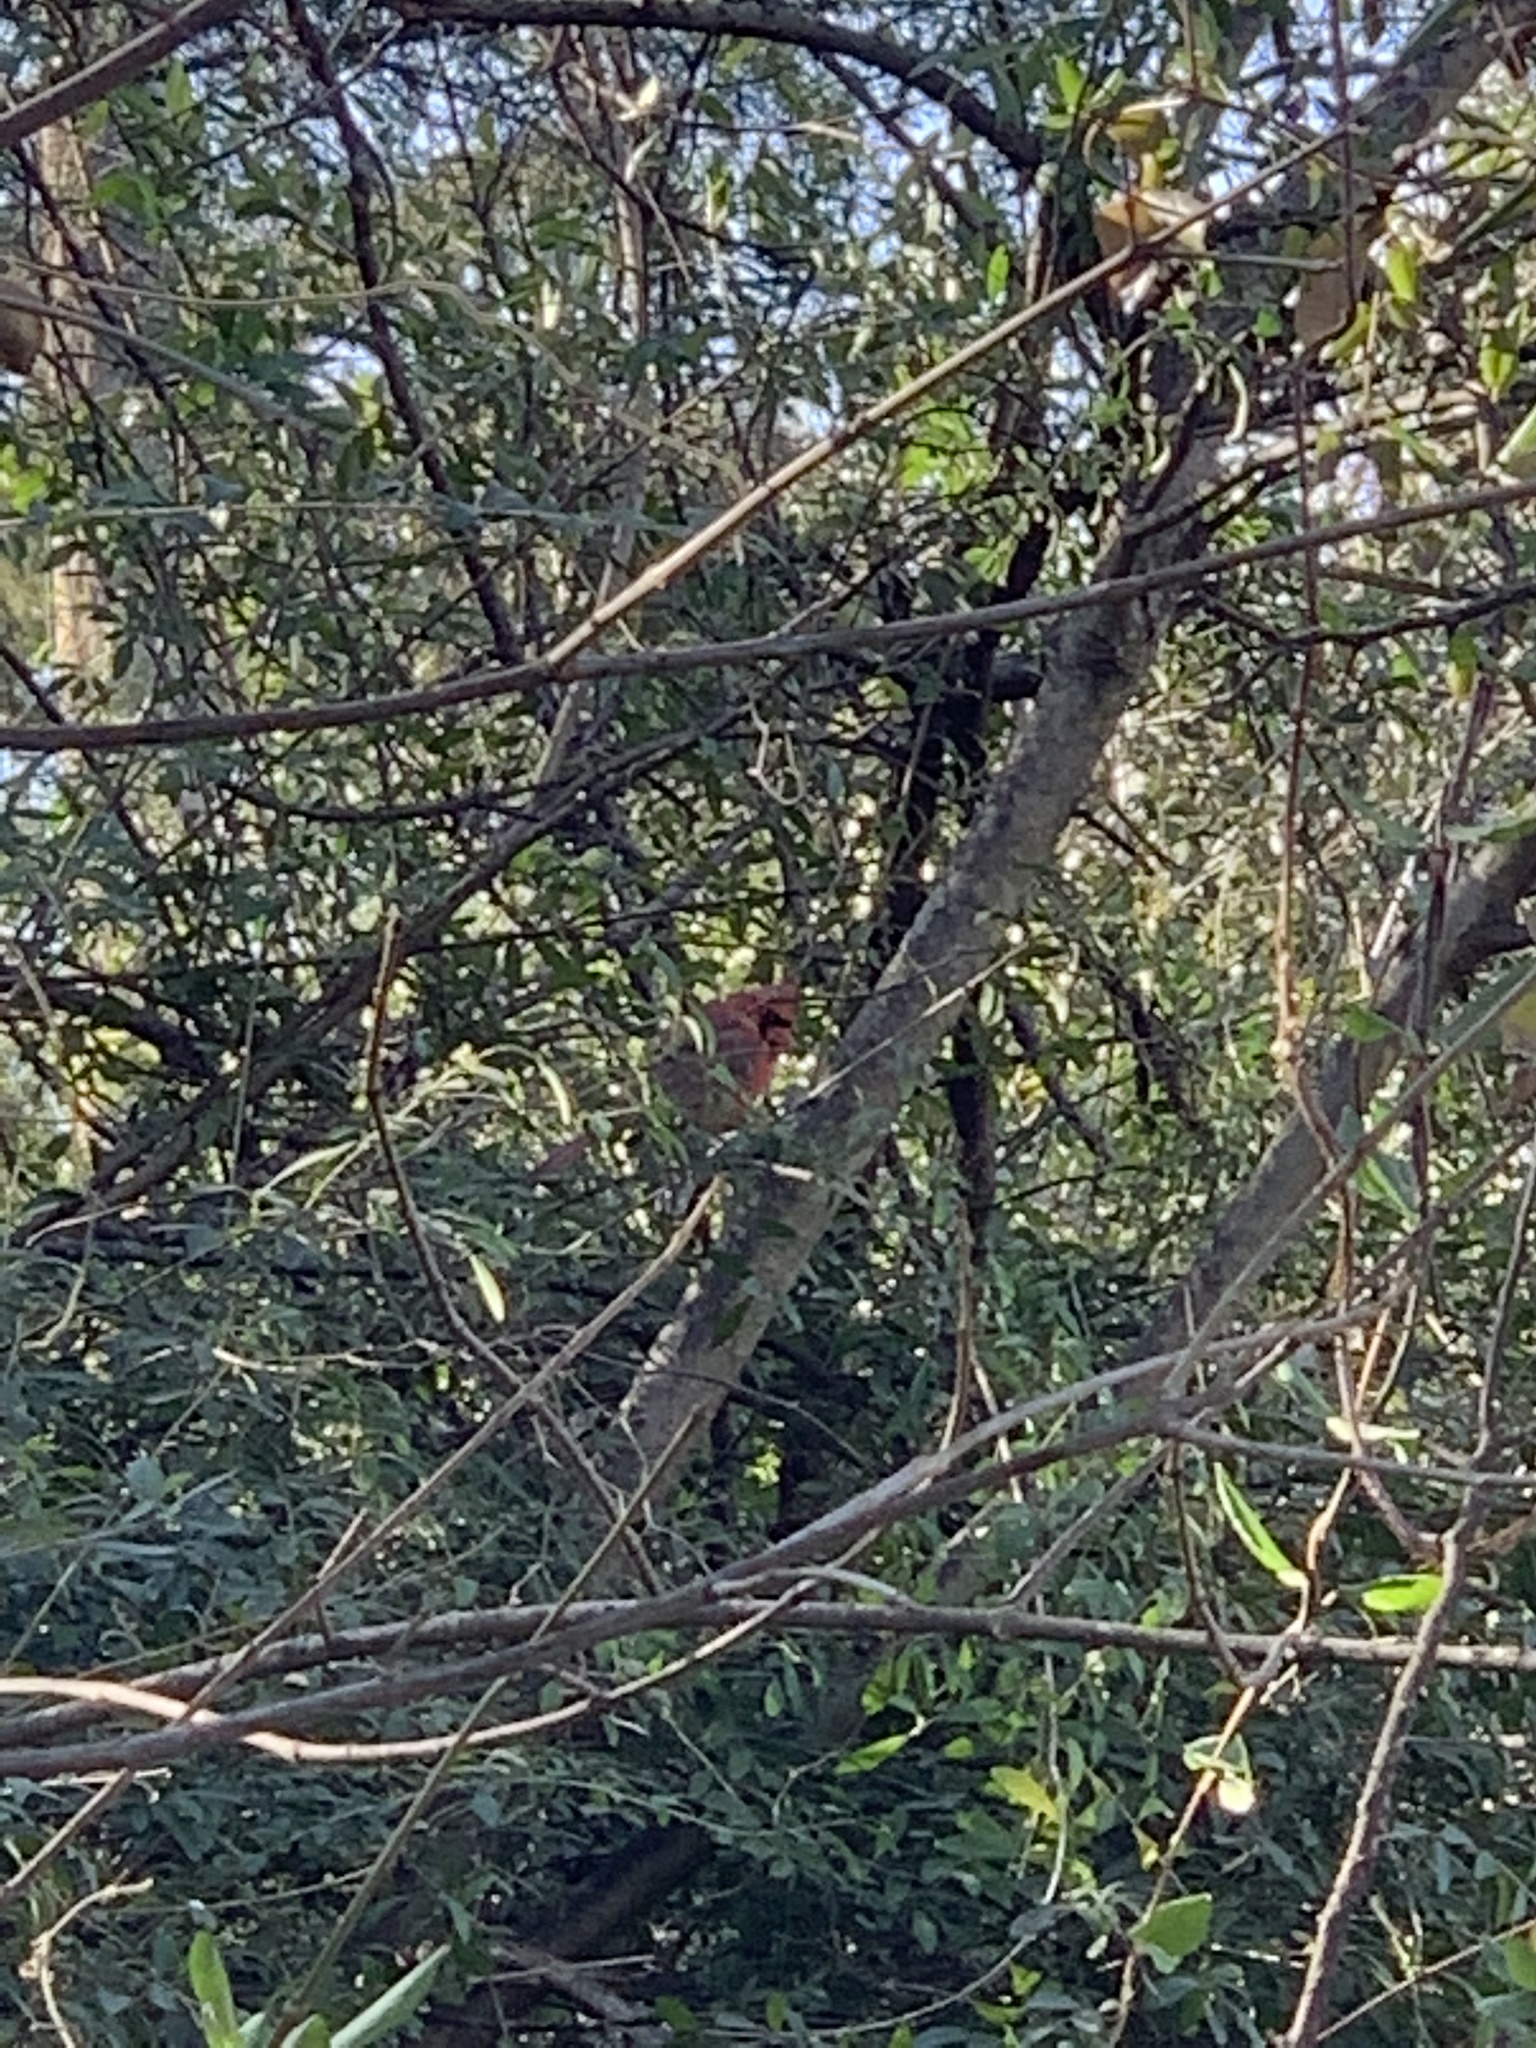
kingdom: Animalia
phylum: Chordata
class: Aves
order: Passeriformes
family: Cardinalidae
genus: Cardinalis
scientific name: Cardinalis cardinalis
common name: Northern cardinal
